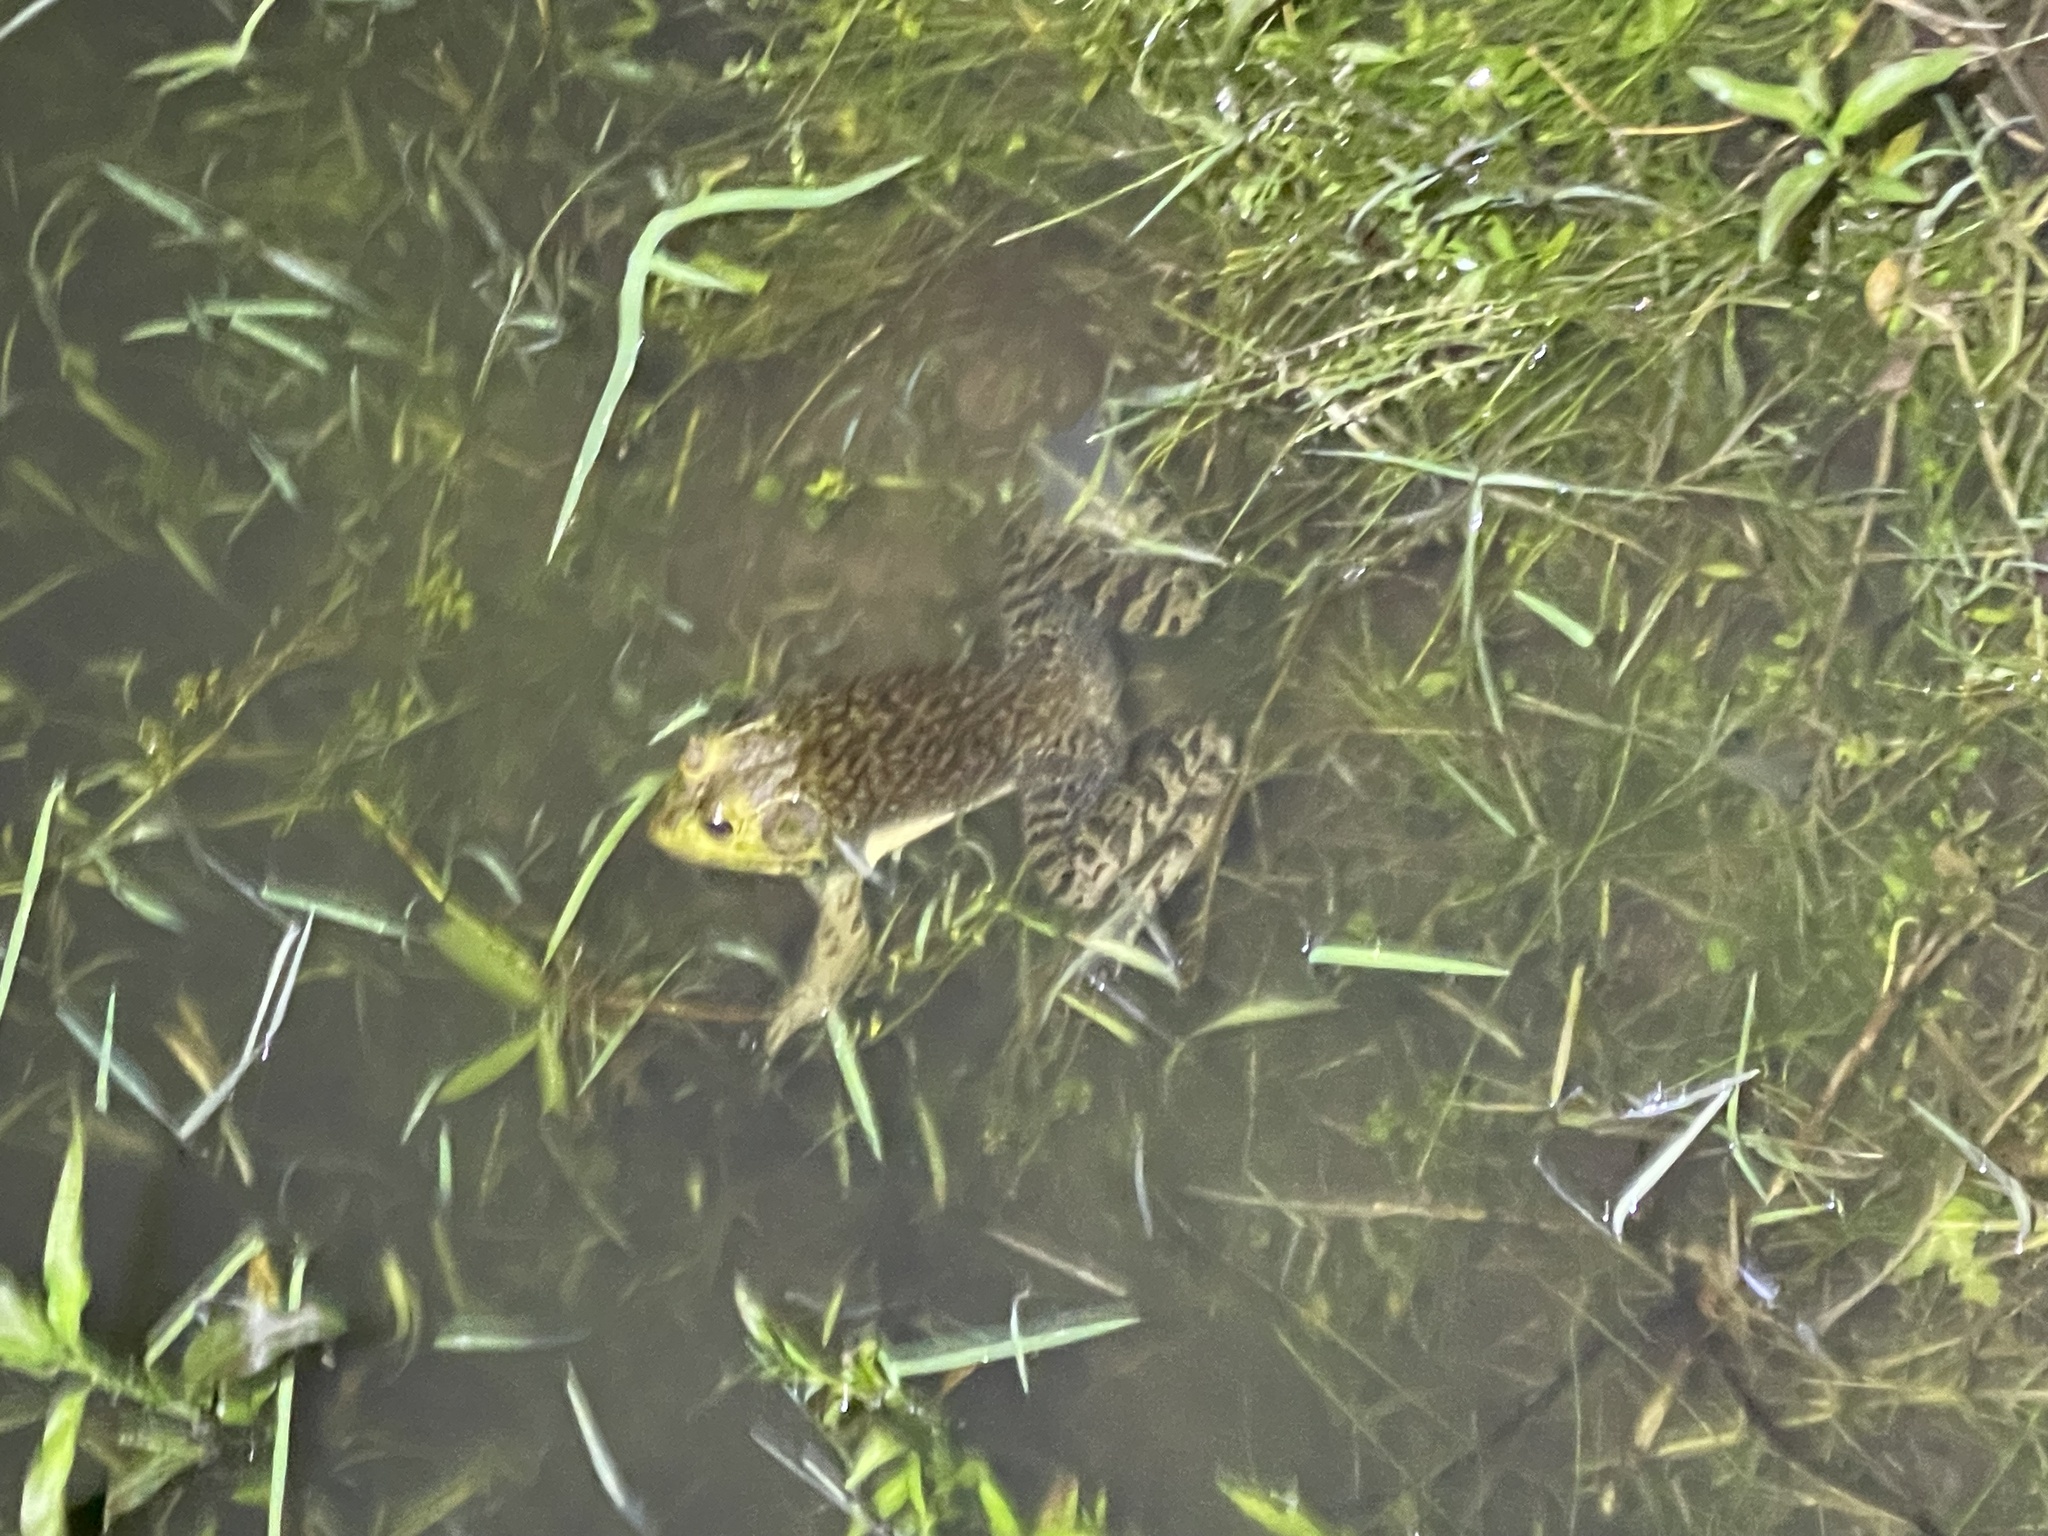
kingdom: Animalia
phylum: Chordata
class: Amphibia
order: Anura
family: Ranidae
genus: Lithobates
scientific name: Lithobates catesbeianus
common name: American bullfrog
